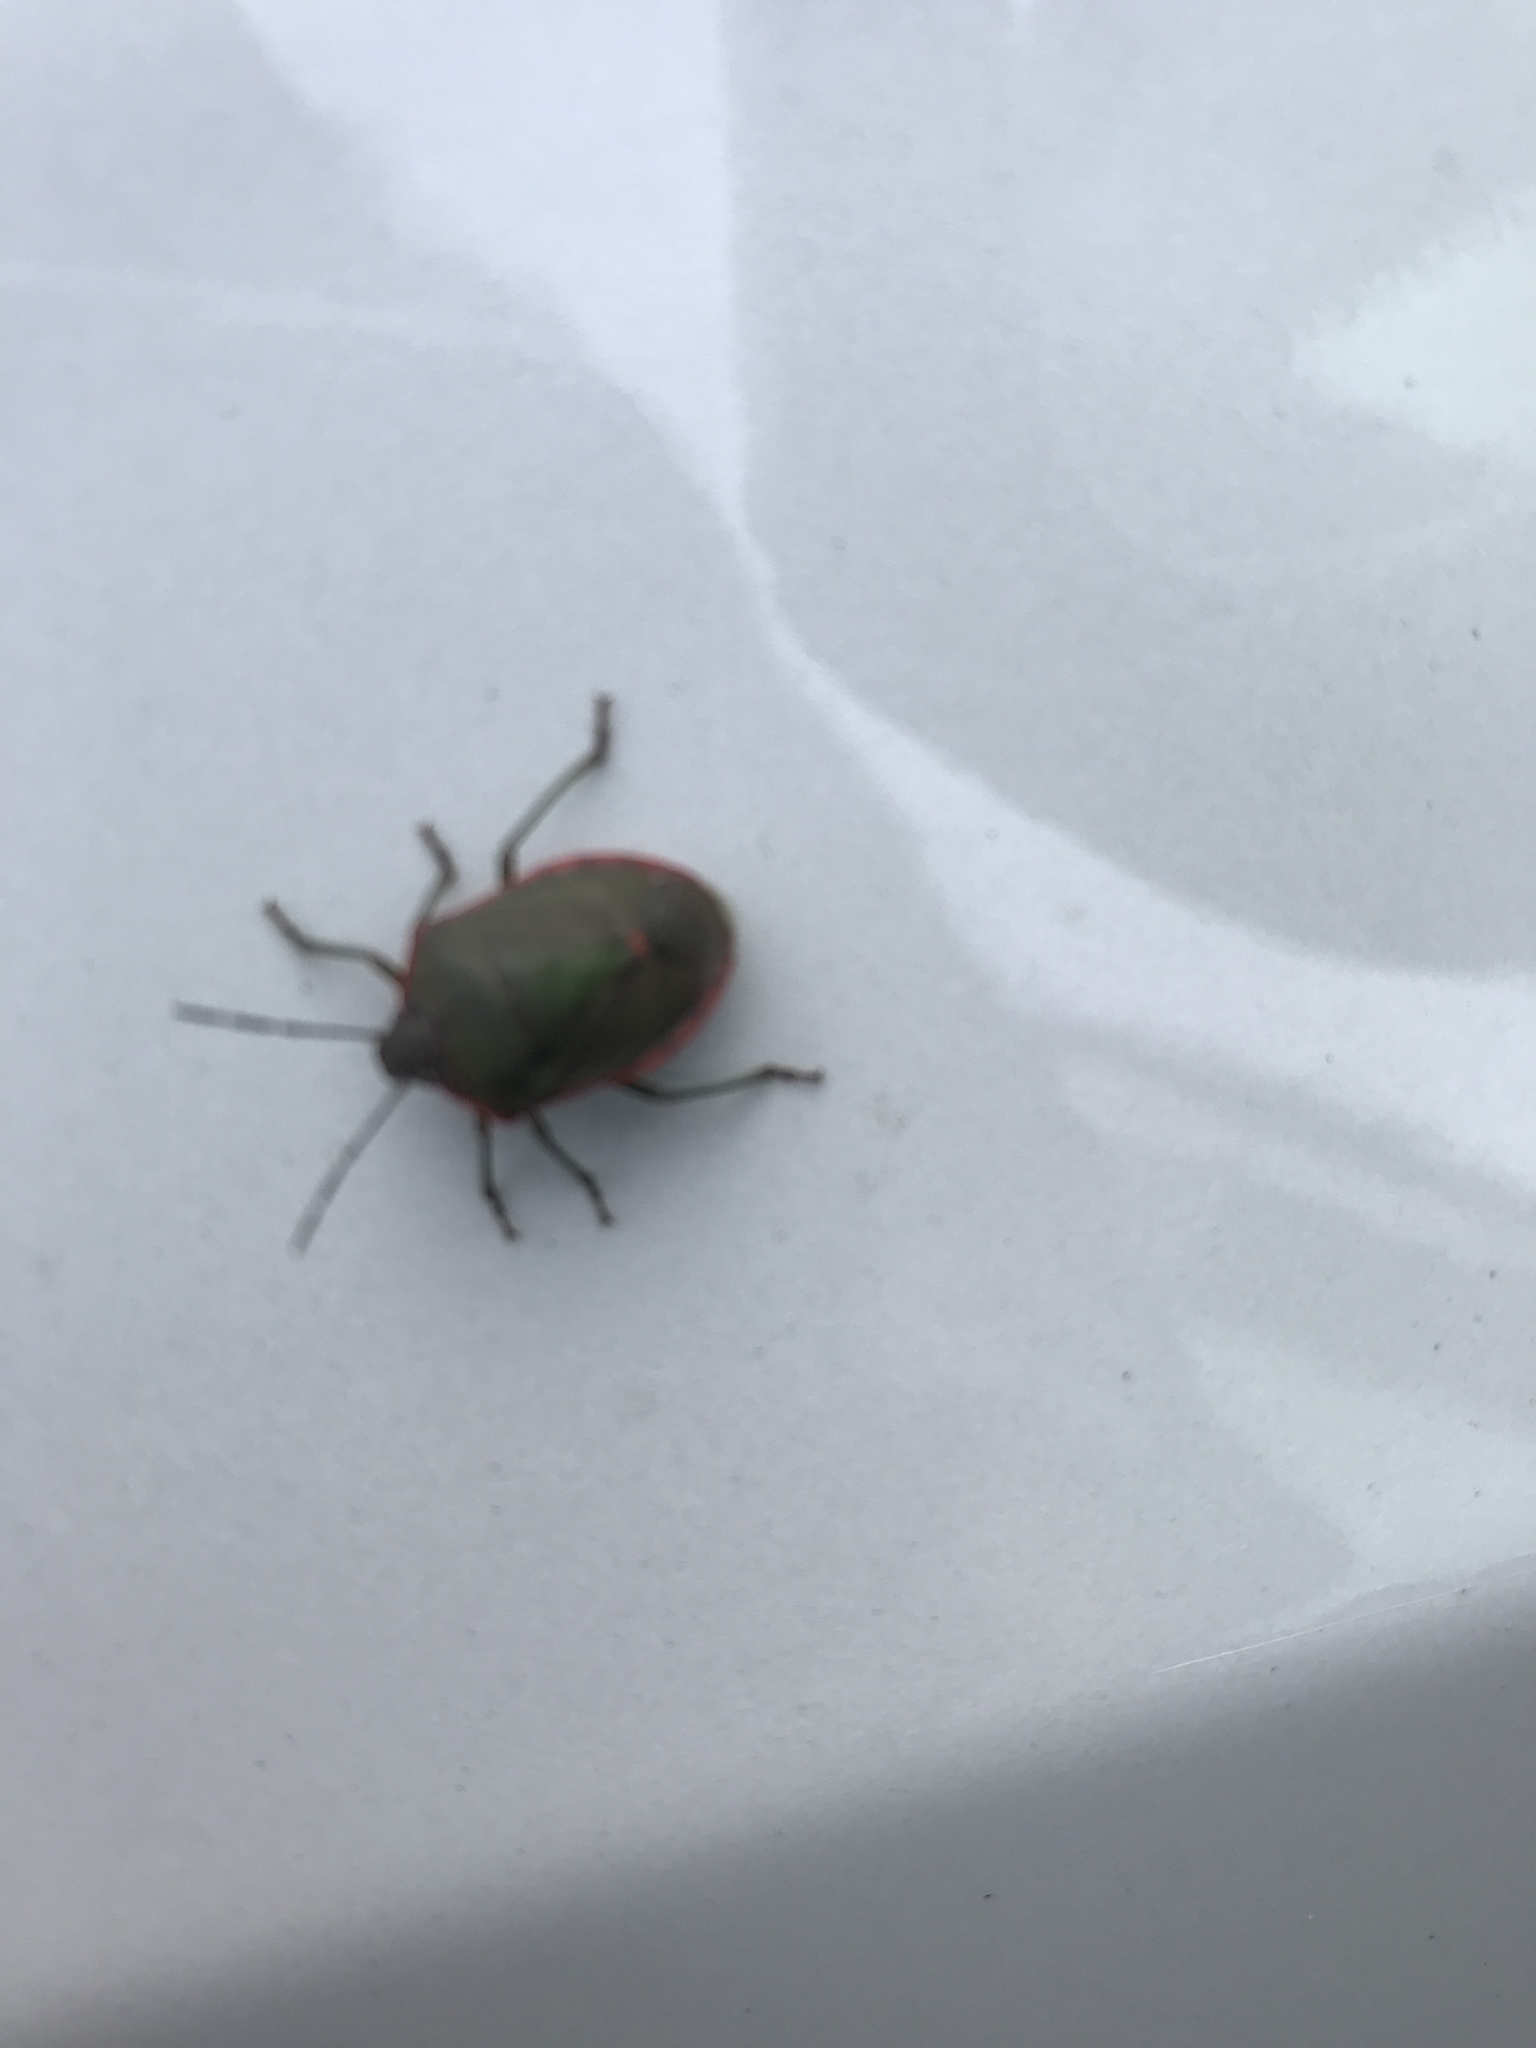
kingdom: Animalia
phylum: Arthropoda
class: Insecta
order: Hemiptera
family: Pentatomidae
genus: Chlorochroa
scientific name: Chlorochroa ligata
